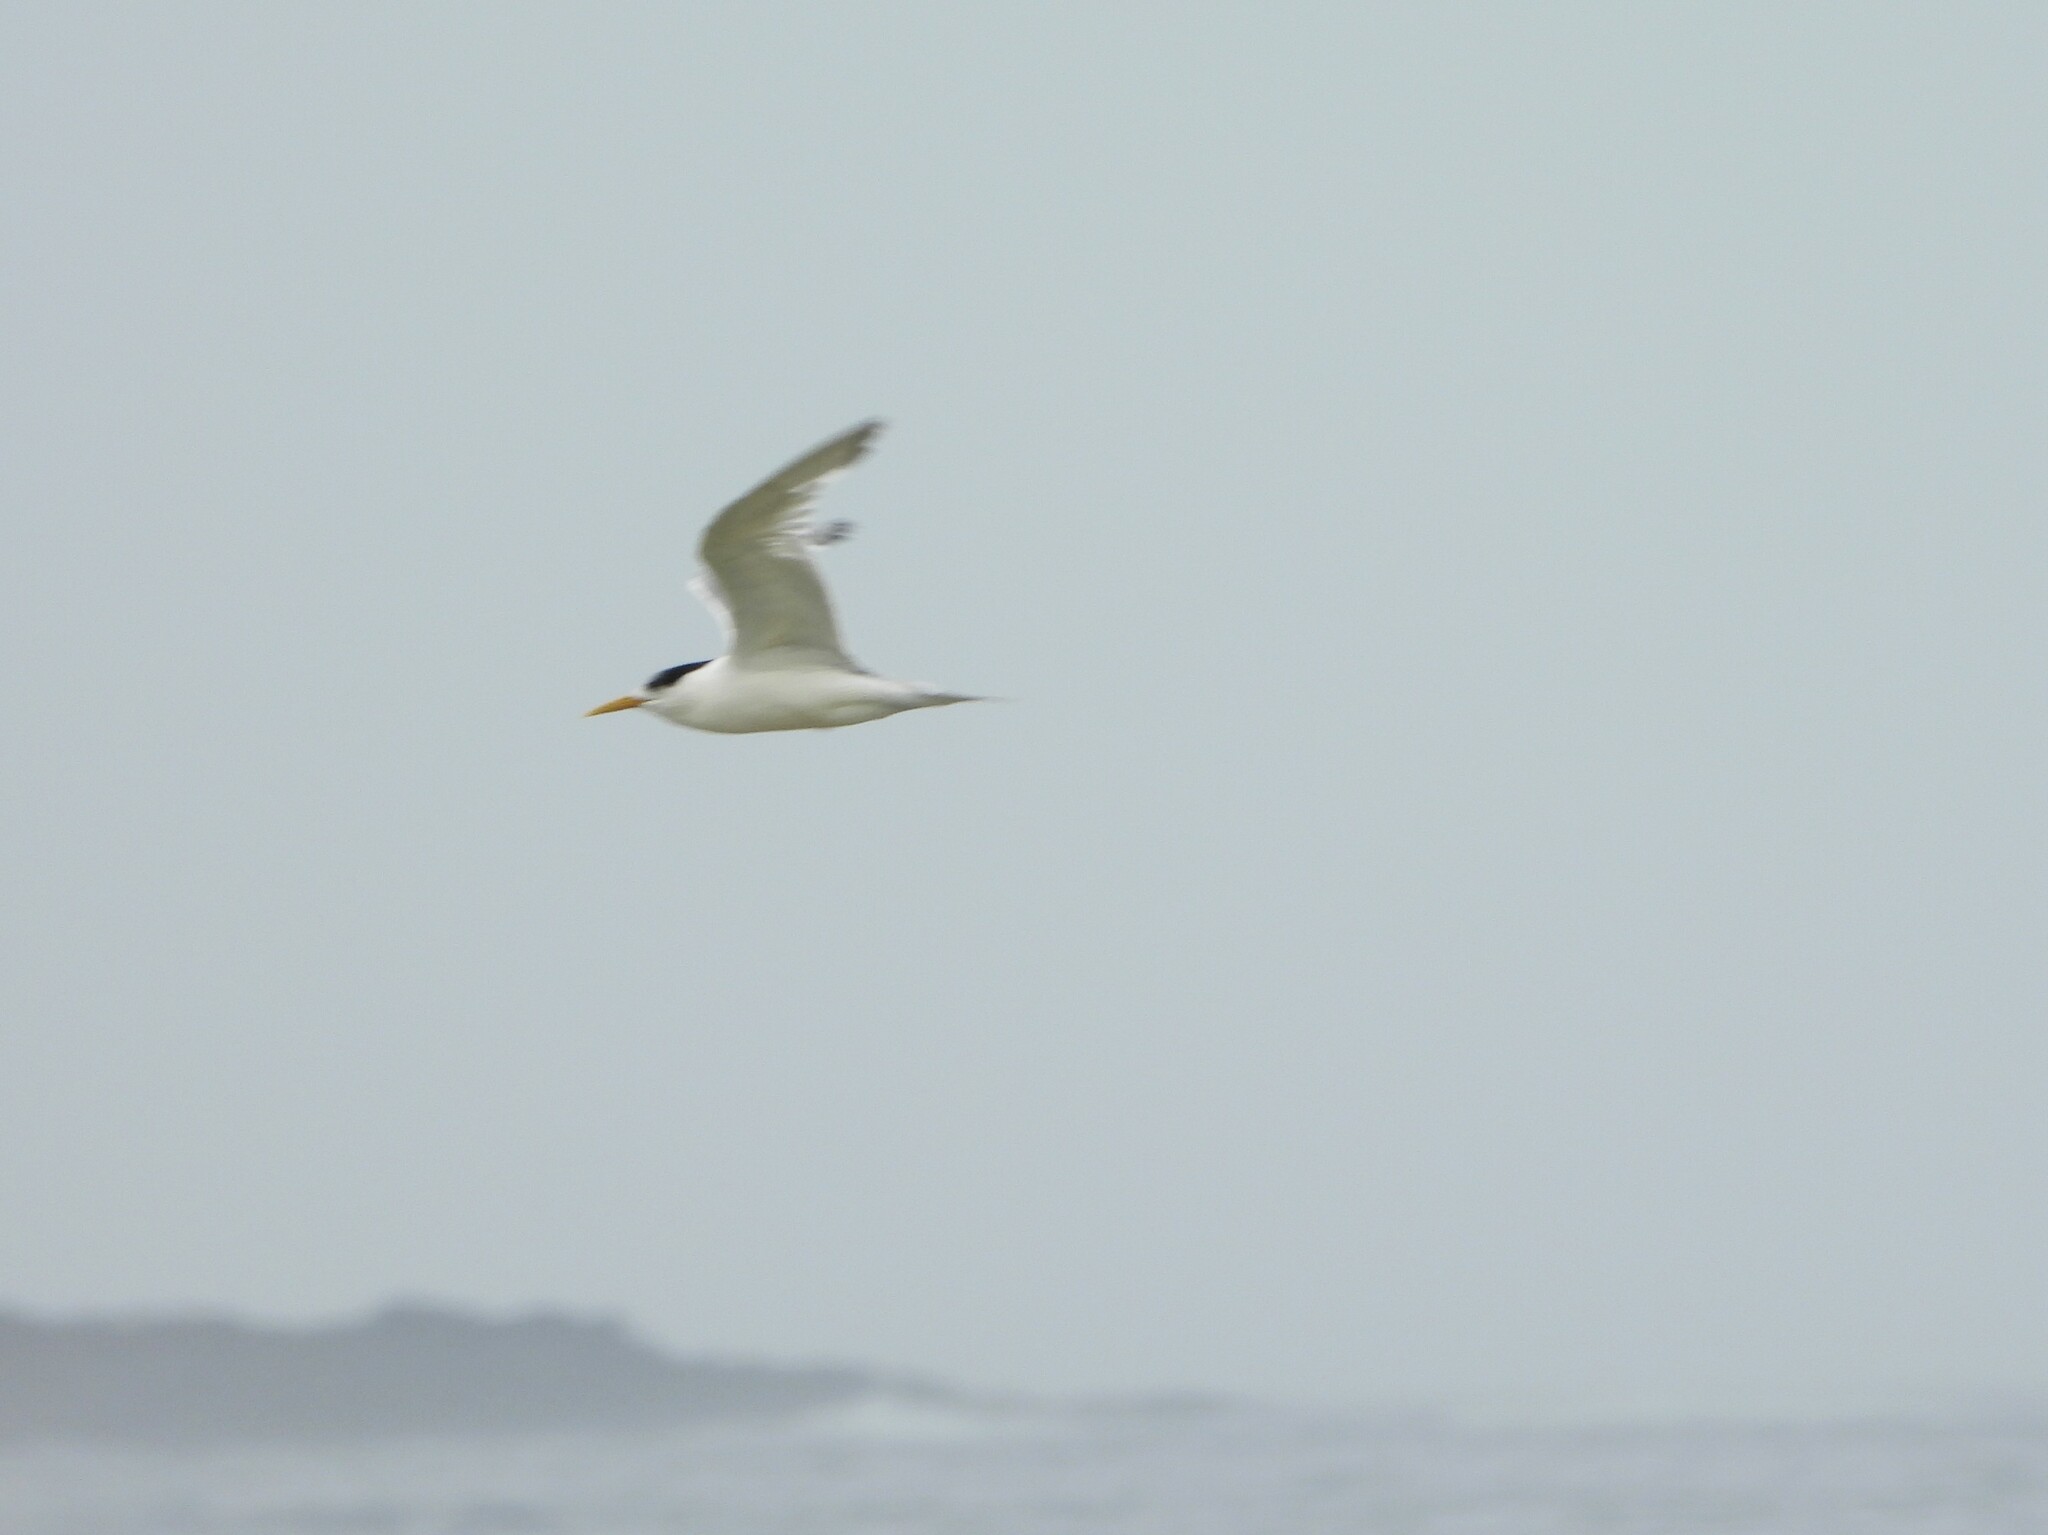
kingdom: Animalia
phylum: Chordata
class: Aves
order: Charadriiformes
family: Laridae
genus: Thalasseus
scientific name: Thalasseus bergii
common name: Greater crested tern
